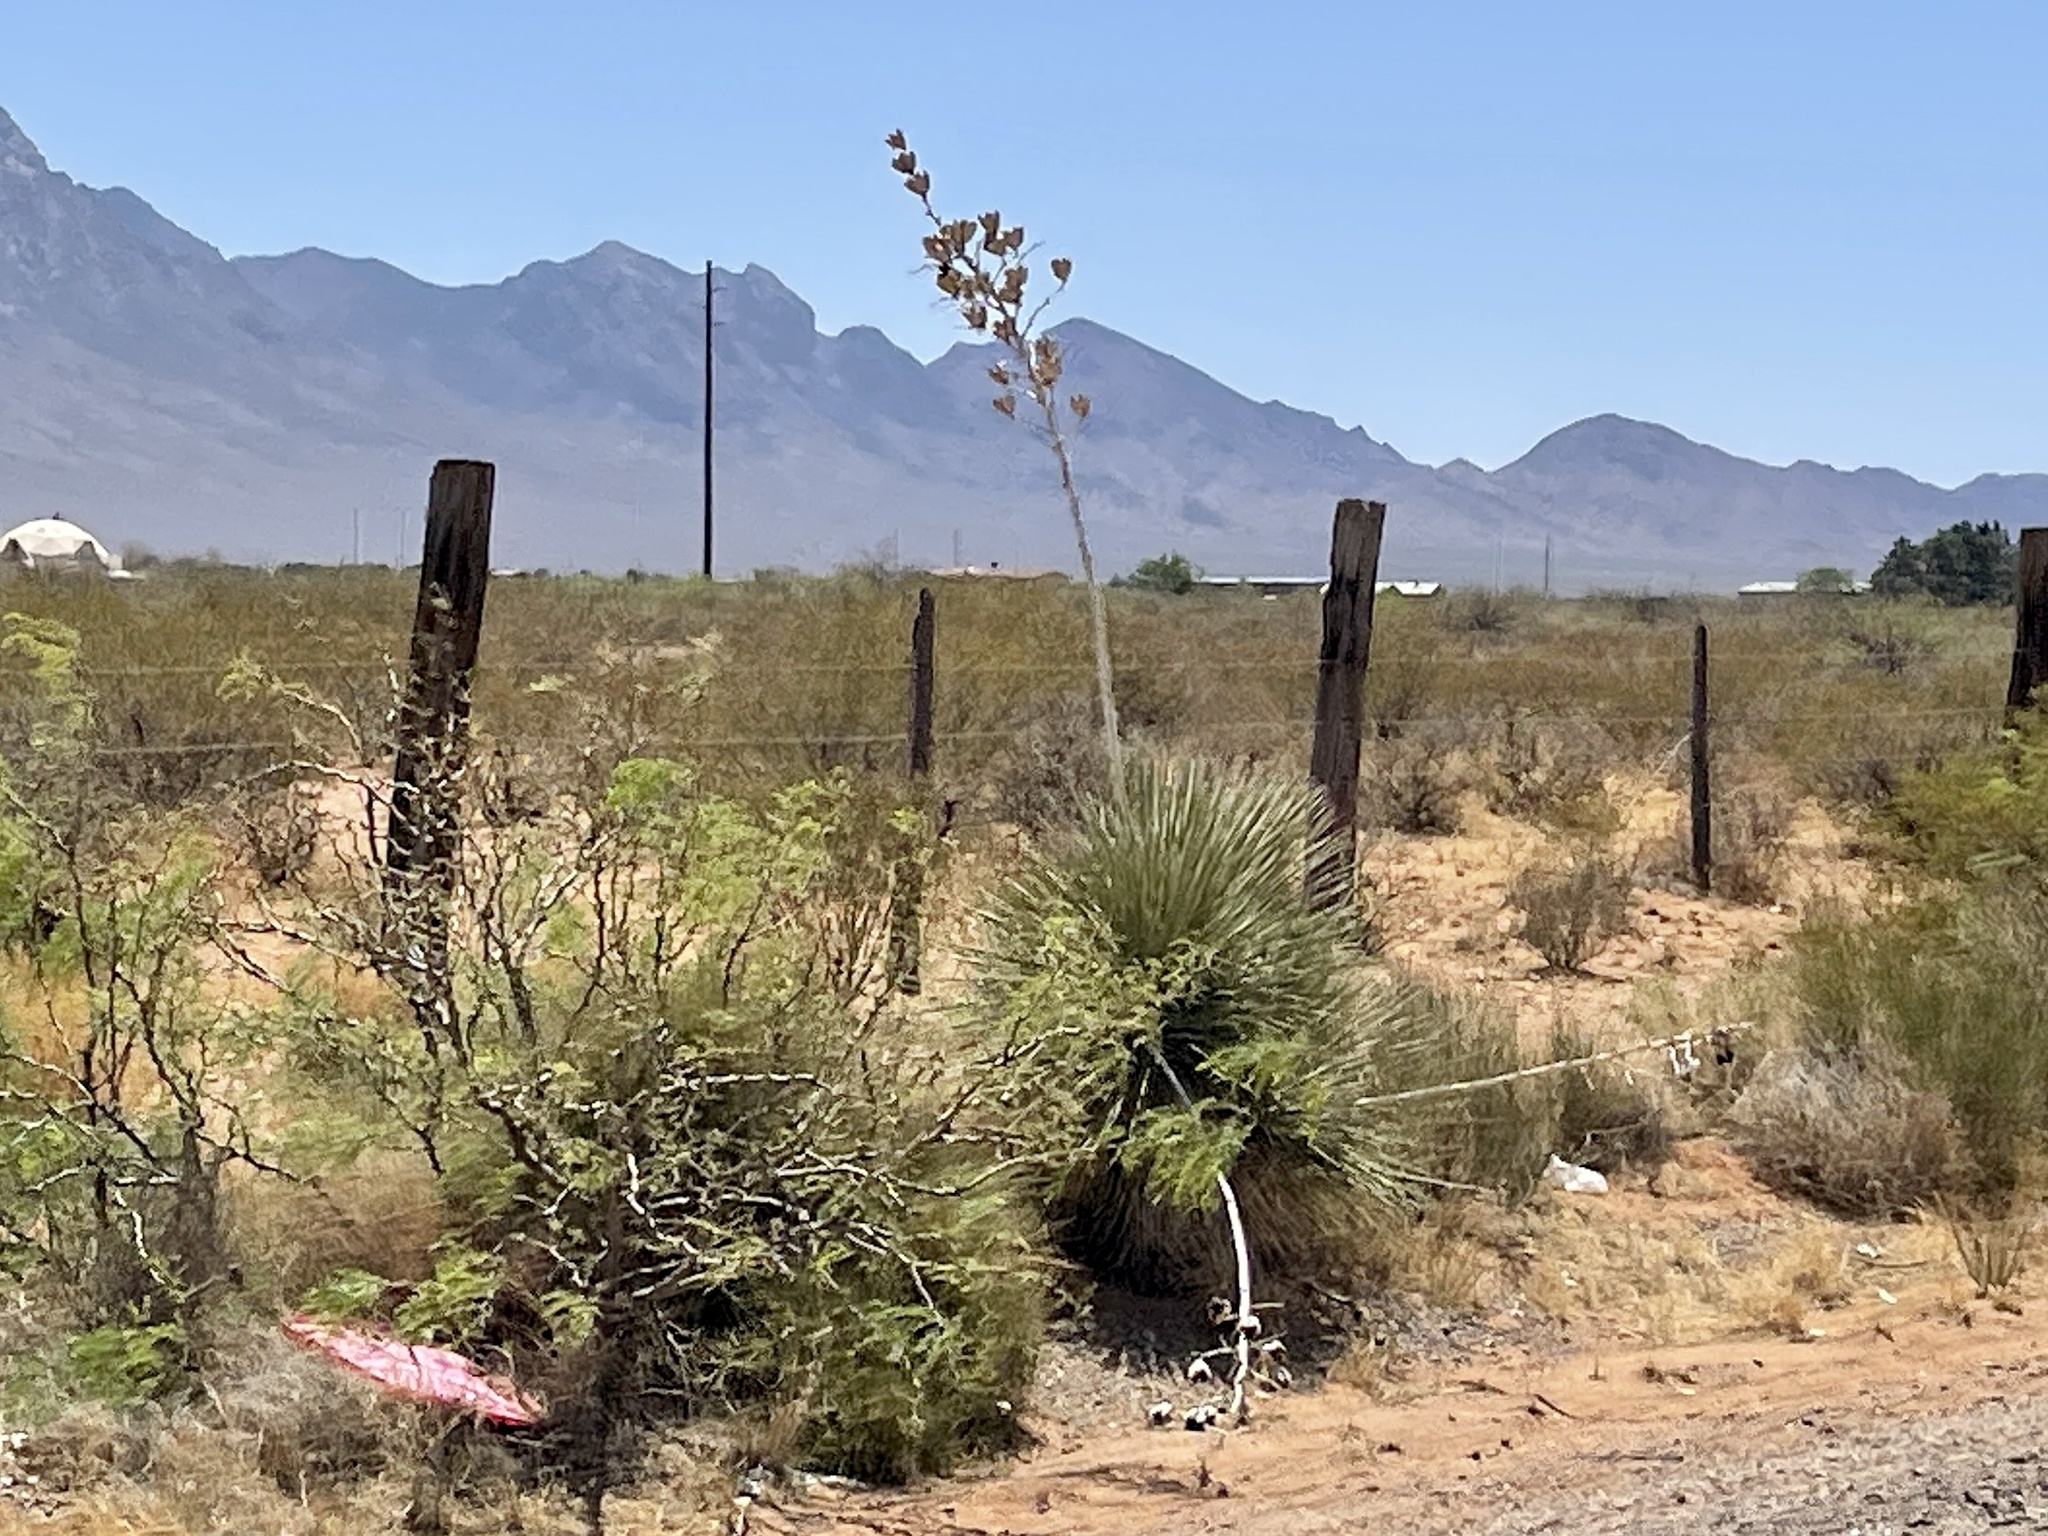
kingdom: Plantae
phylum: Tracheophyta
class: Liliopsida
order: Asparagales
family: Asparagaceae
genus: Yucca
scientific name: Yucca elata
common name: Palmella
